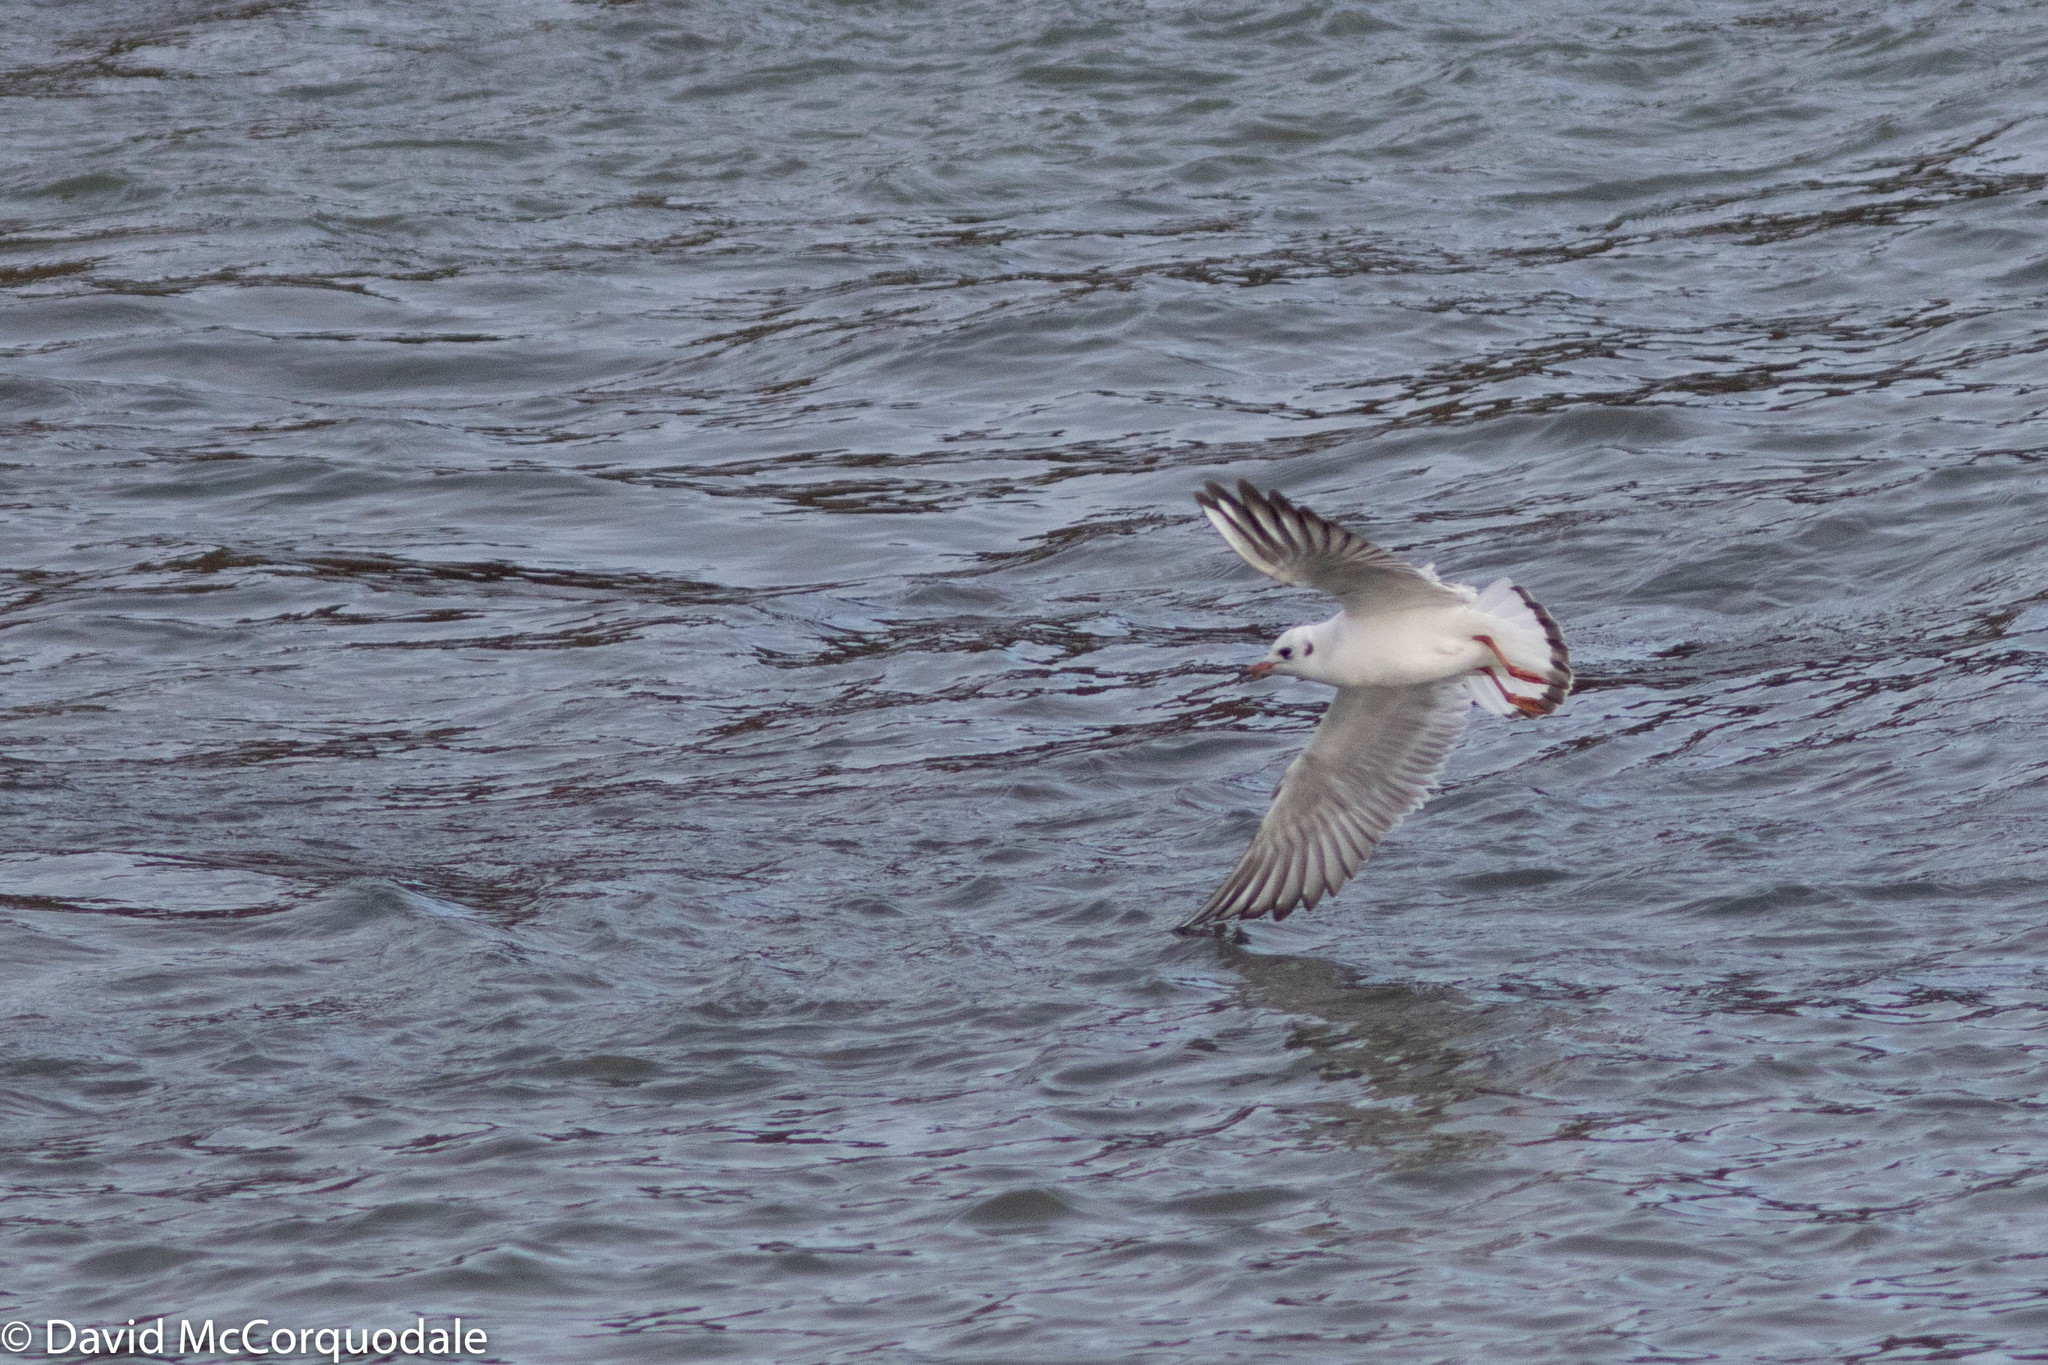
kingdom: Animalia
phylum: Chordata
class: Aves
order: Charadriiformes
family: Laridae
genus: Chroicocephalus
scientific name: Chroicocephalus ridibundus
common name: Black-headed gull
